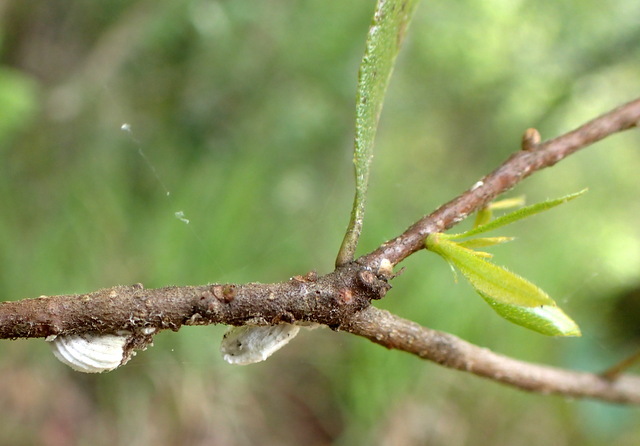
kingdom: Animalia
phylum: Arthropoda
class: Insecta
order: Hemiptera
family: Margarodidae
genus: Icerya
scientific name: Icerya purchasi
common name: Cottony cushion scale
